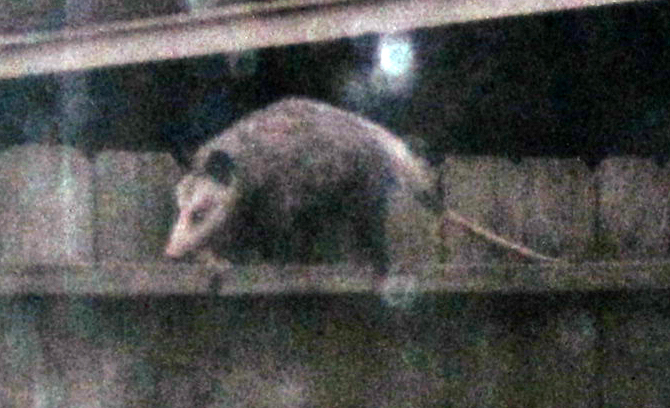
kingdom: Animalia
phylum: Chordata
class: Mammalia
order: Didelphimorphia
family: Didelphidae
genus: Didelphis
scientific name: Didelphis virginiana
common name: Virginia opossum
